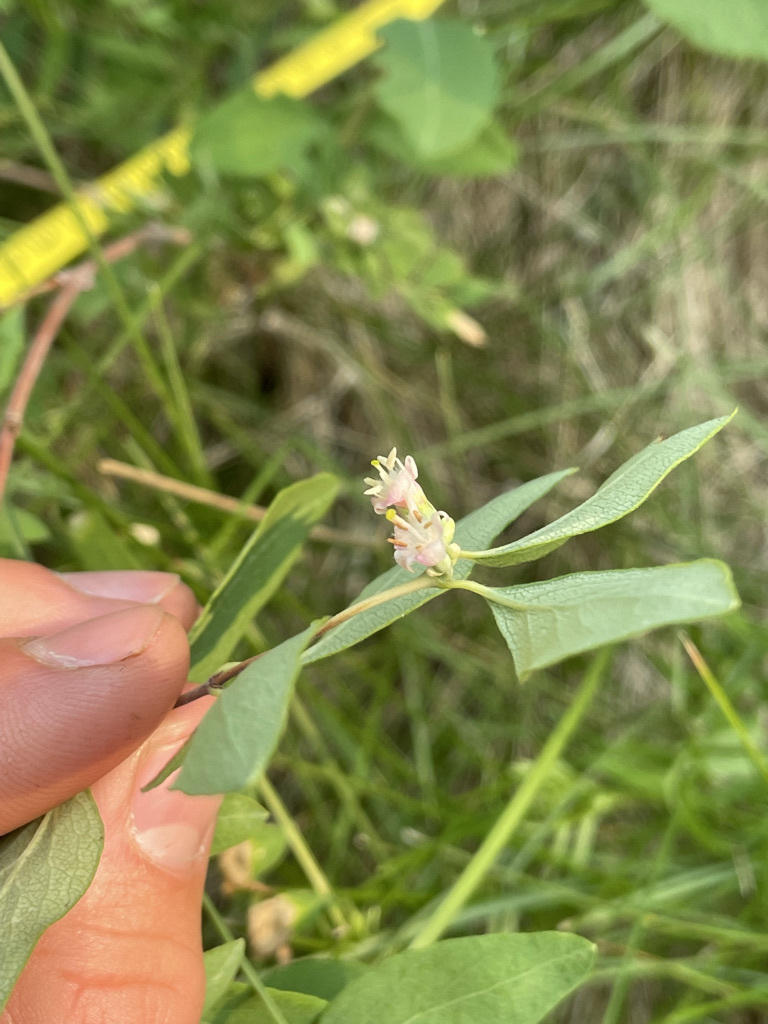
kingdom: Plantae
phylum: Tracheophyta
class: Magnoliopsida
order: Gentianales
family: Apocynaceae
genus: Apocynum
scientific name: Apocynum androsaemifolium
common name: Spreading dogbane
